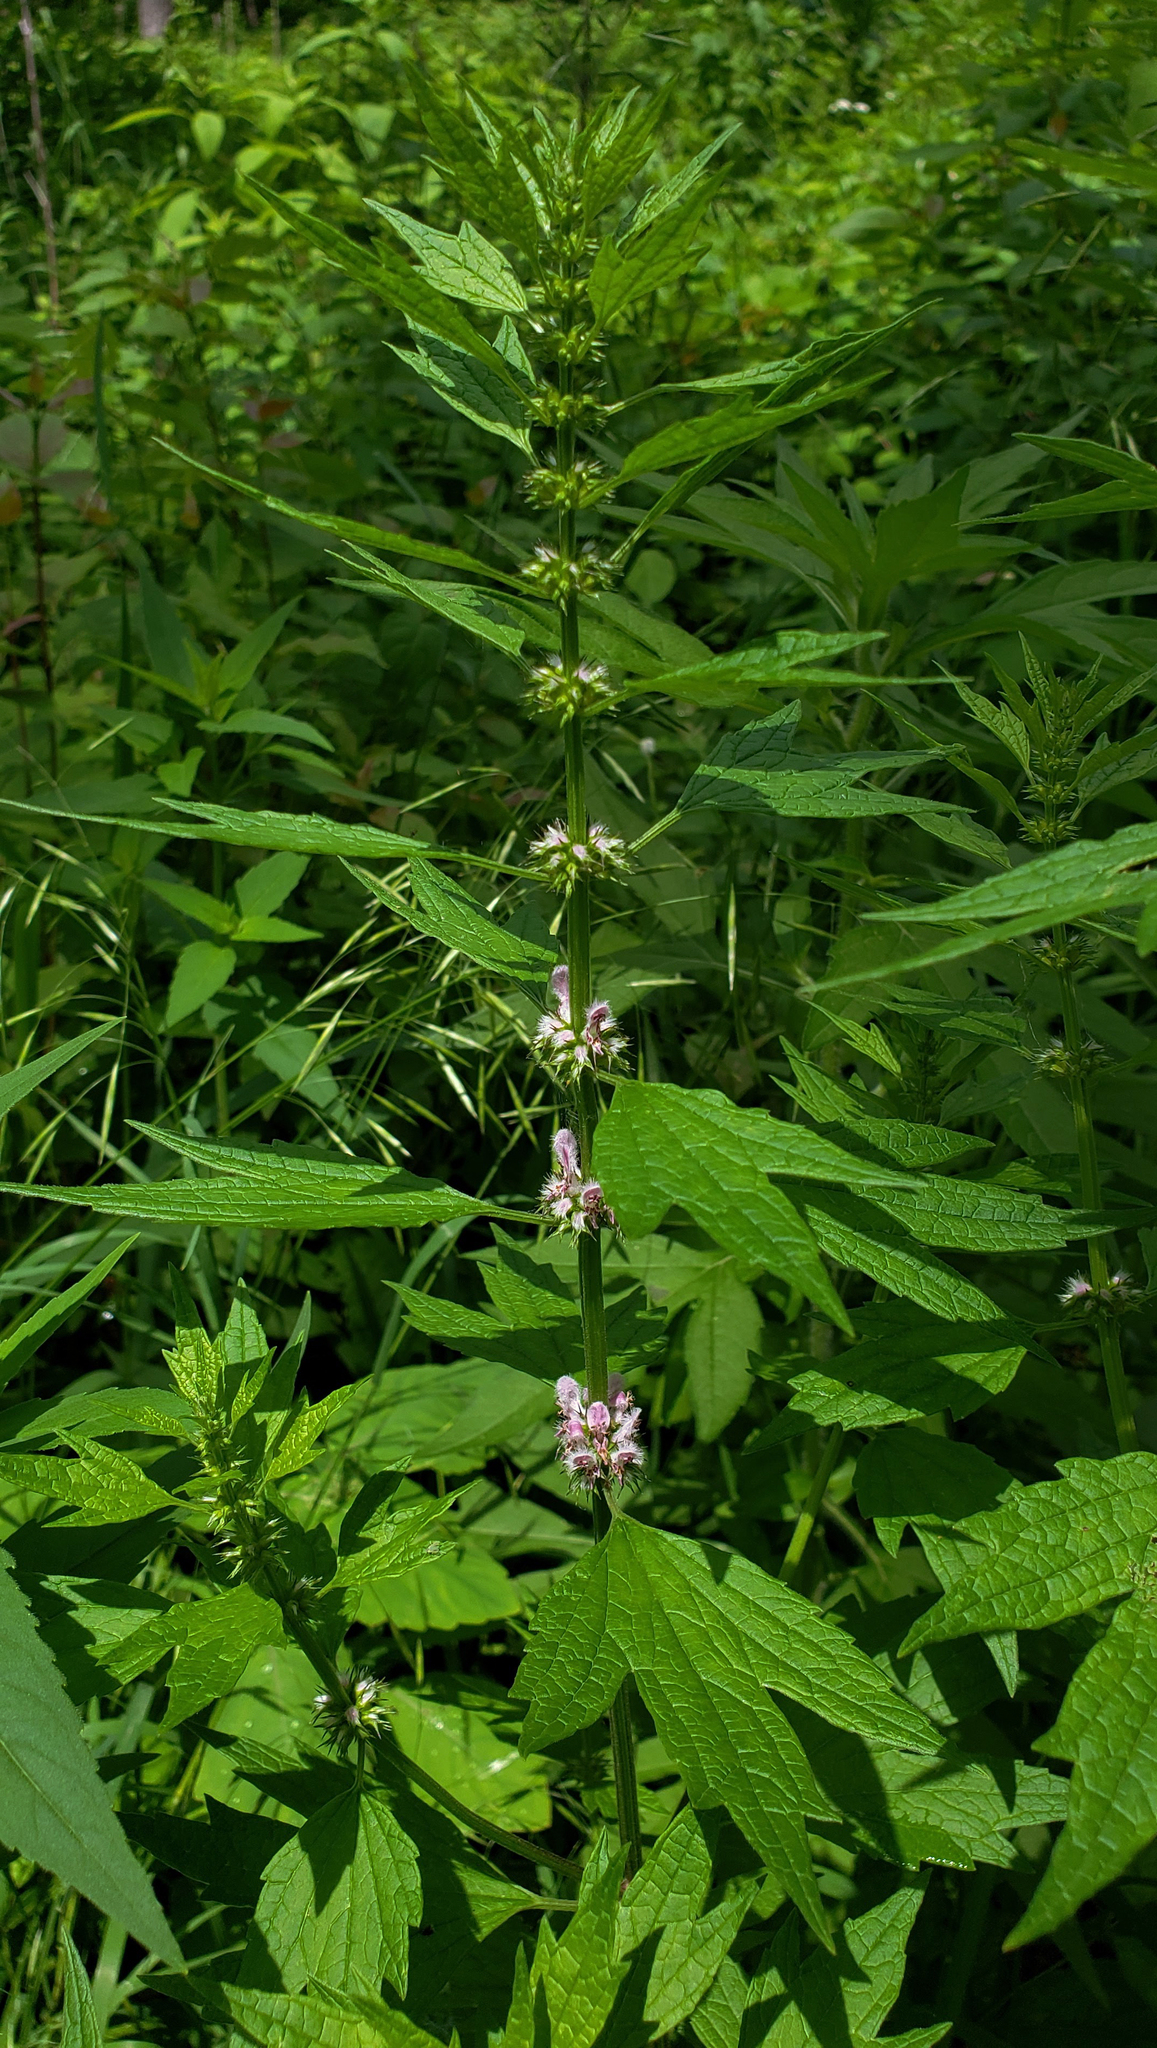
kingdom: Plantae
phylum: Tracheophyta
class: Magnoliopsida
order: Lamiales
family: Lamiaceae
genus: Leonurus
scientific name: Leonurus cardiaca
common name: Motherwort
